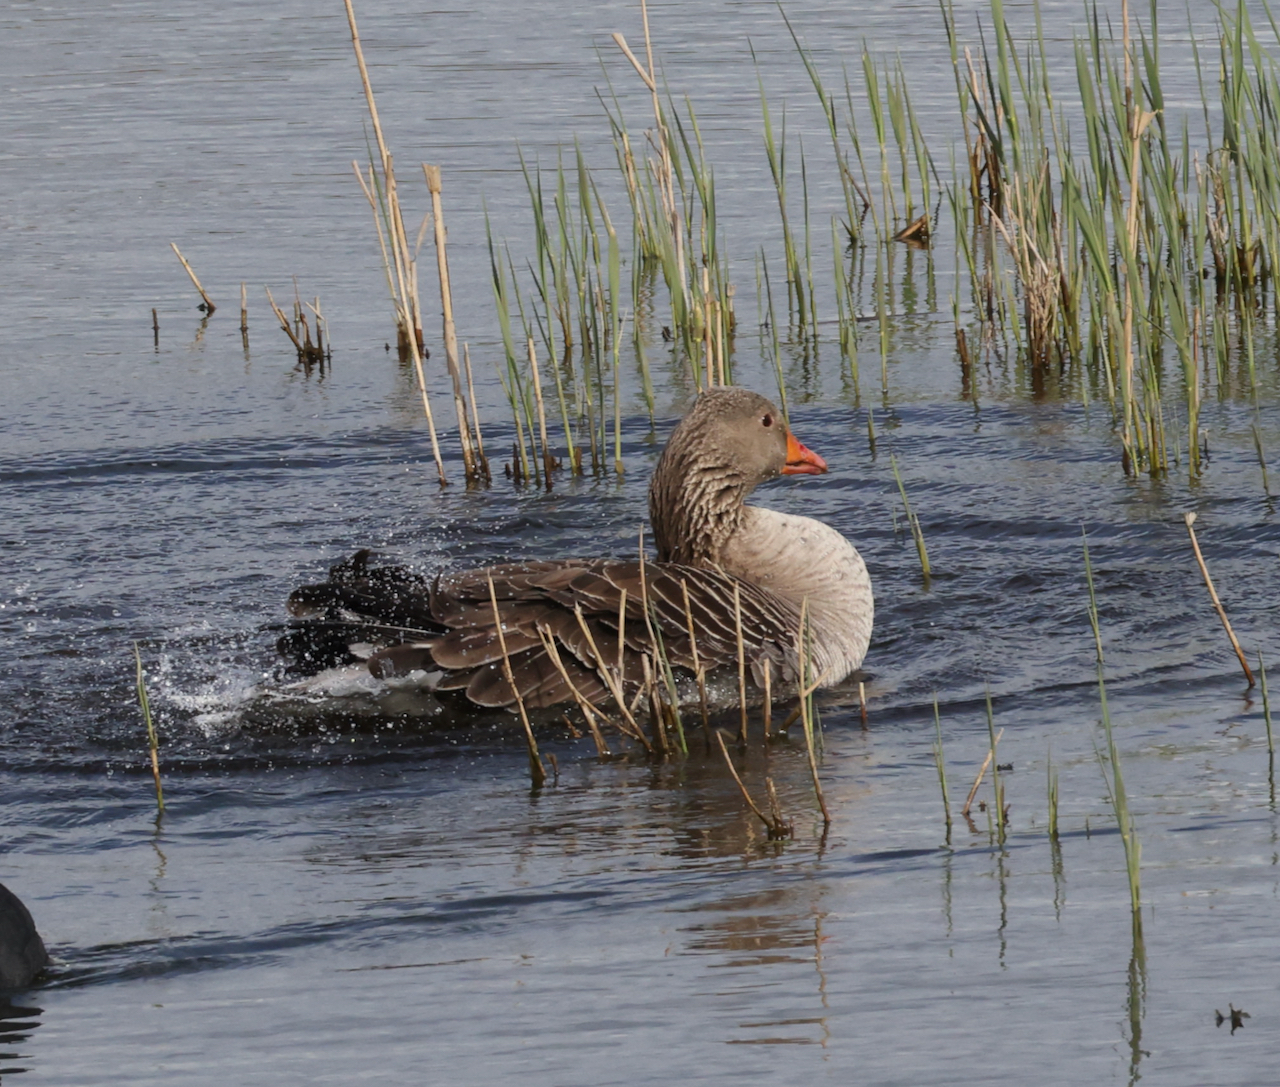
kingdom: Animalia
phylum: Chordata
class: Aves
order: Anseriformes
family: Anatidae
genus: Anser
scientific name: Anser anser
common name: Greylag goose
